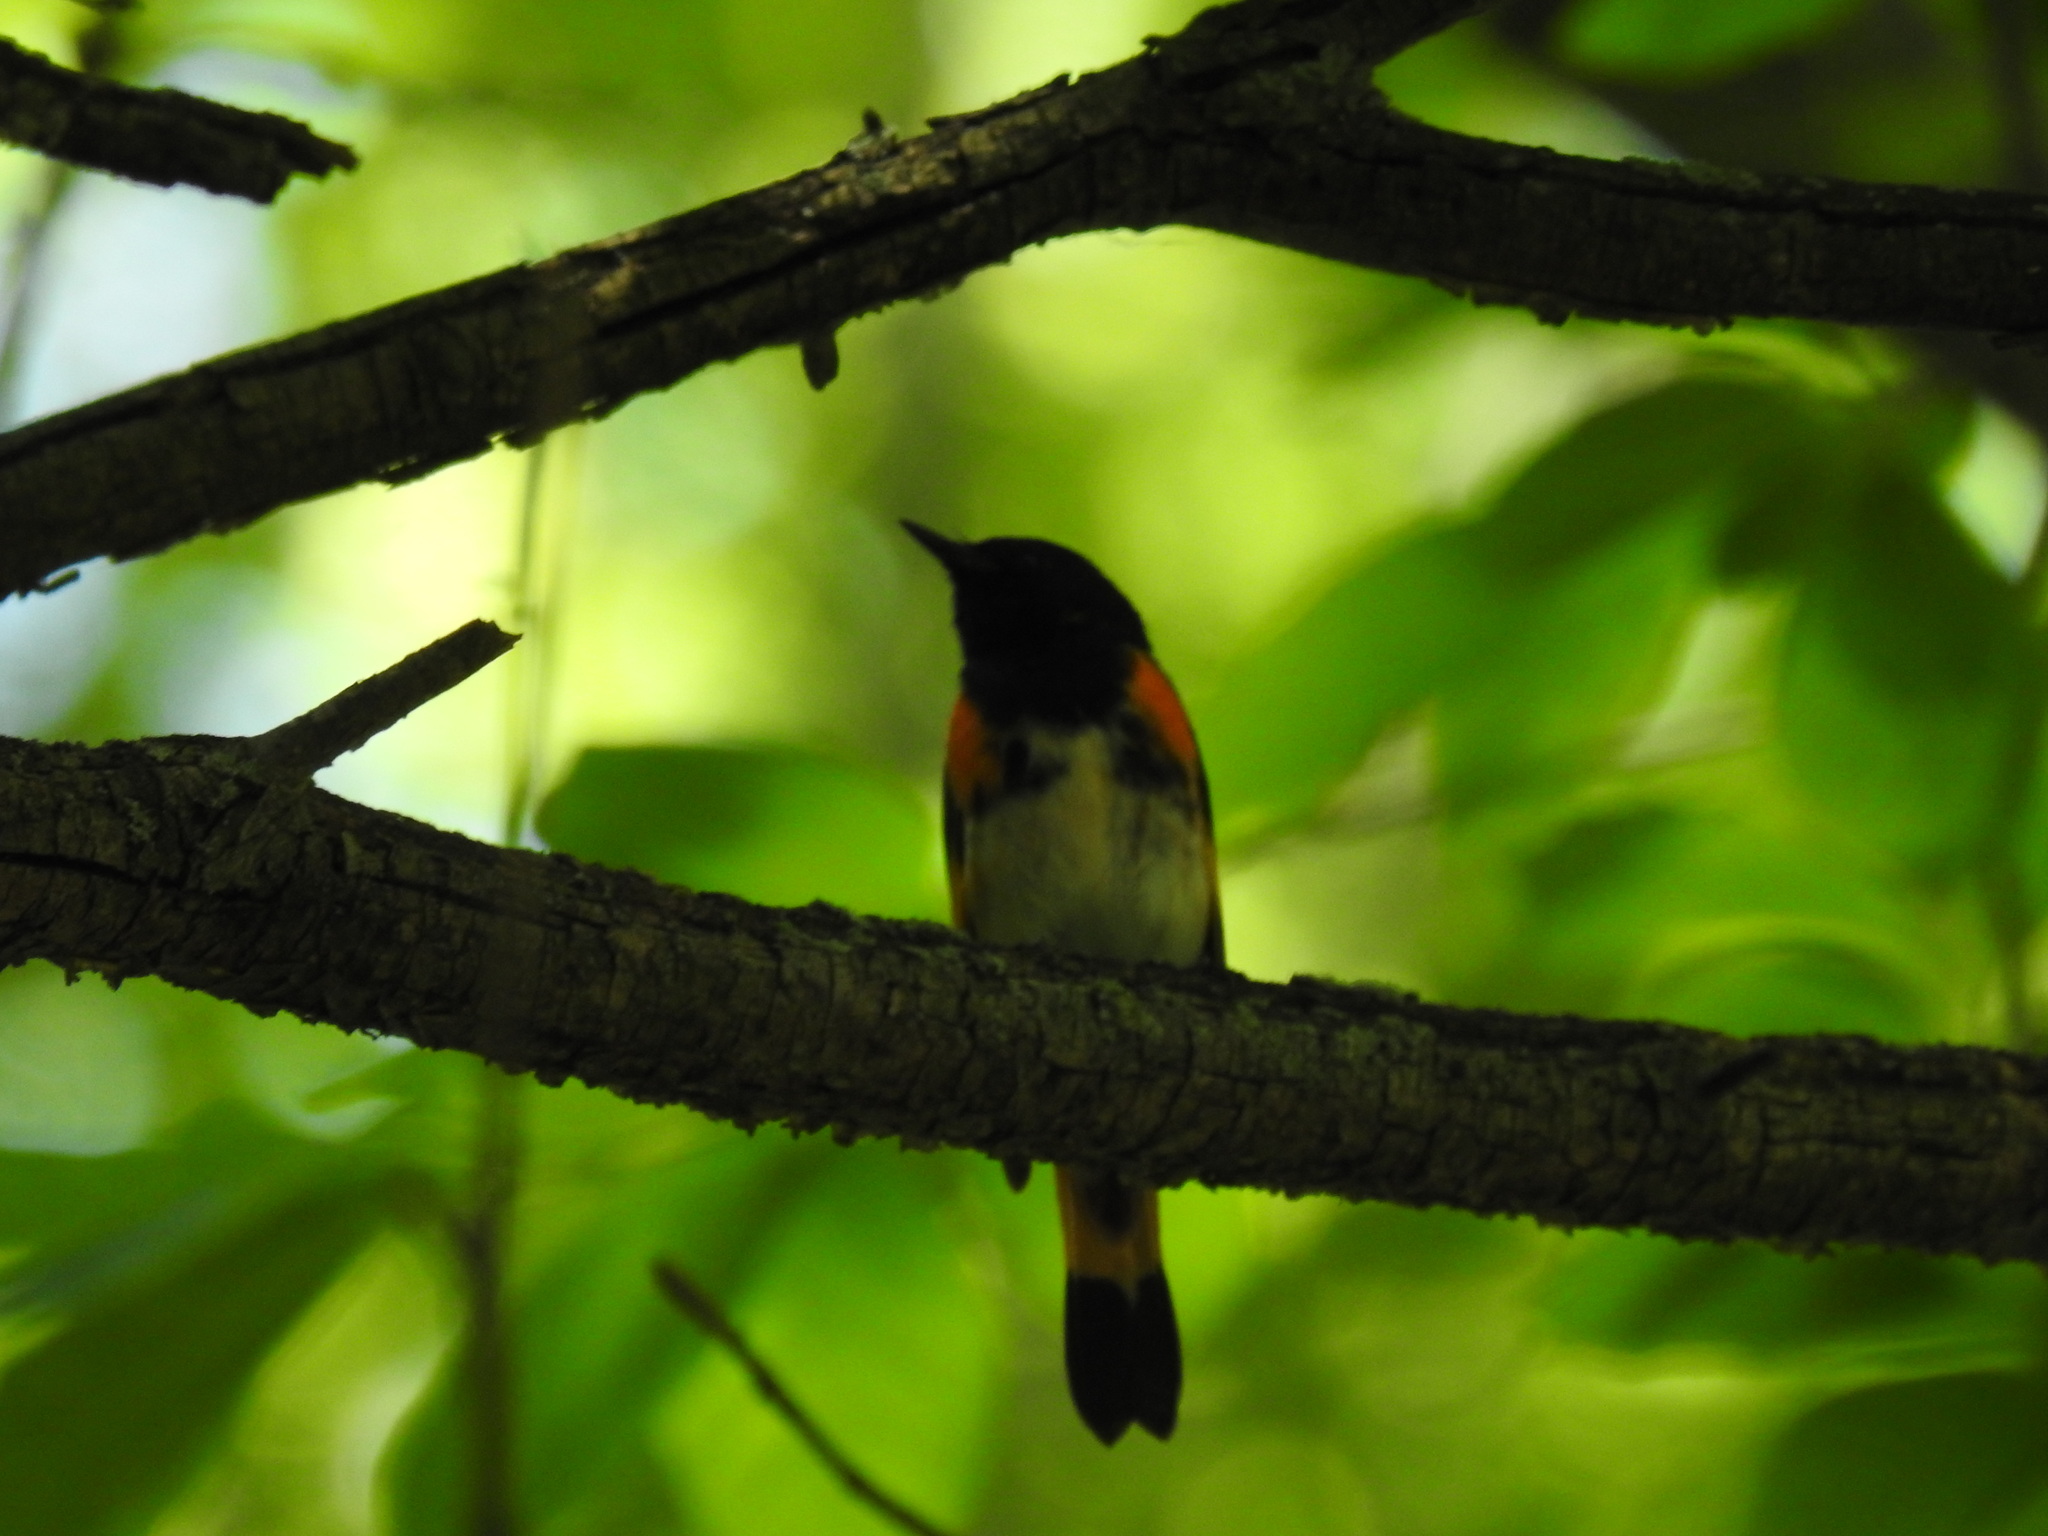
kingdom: Animalia
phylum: Chordata
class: Aves
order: Passeriformes
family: Parulidae
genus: Setophaga
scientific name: Setophaga ruticilla
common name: American redstart
